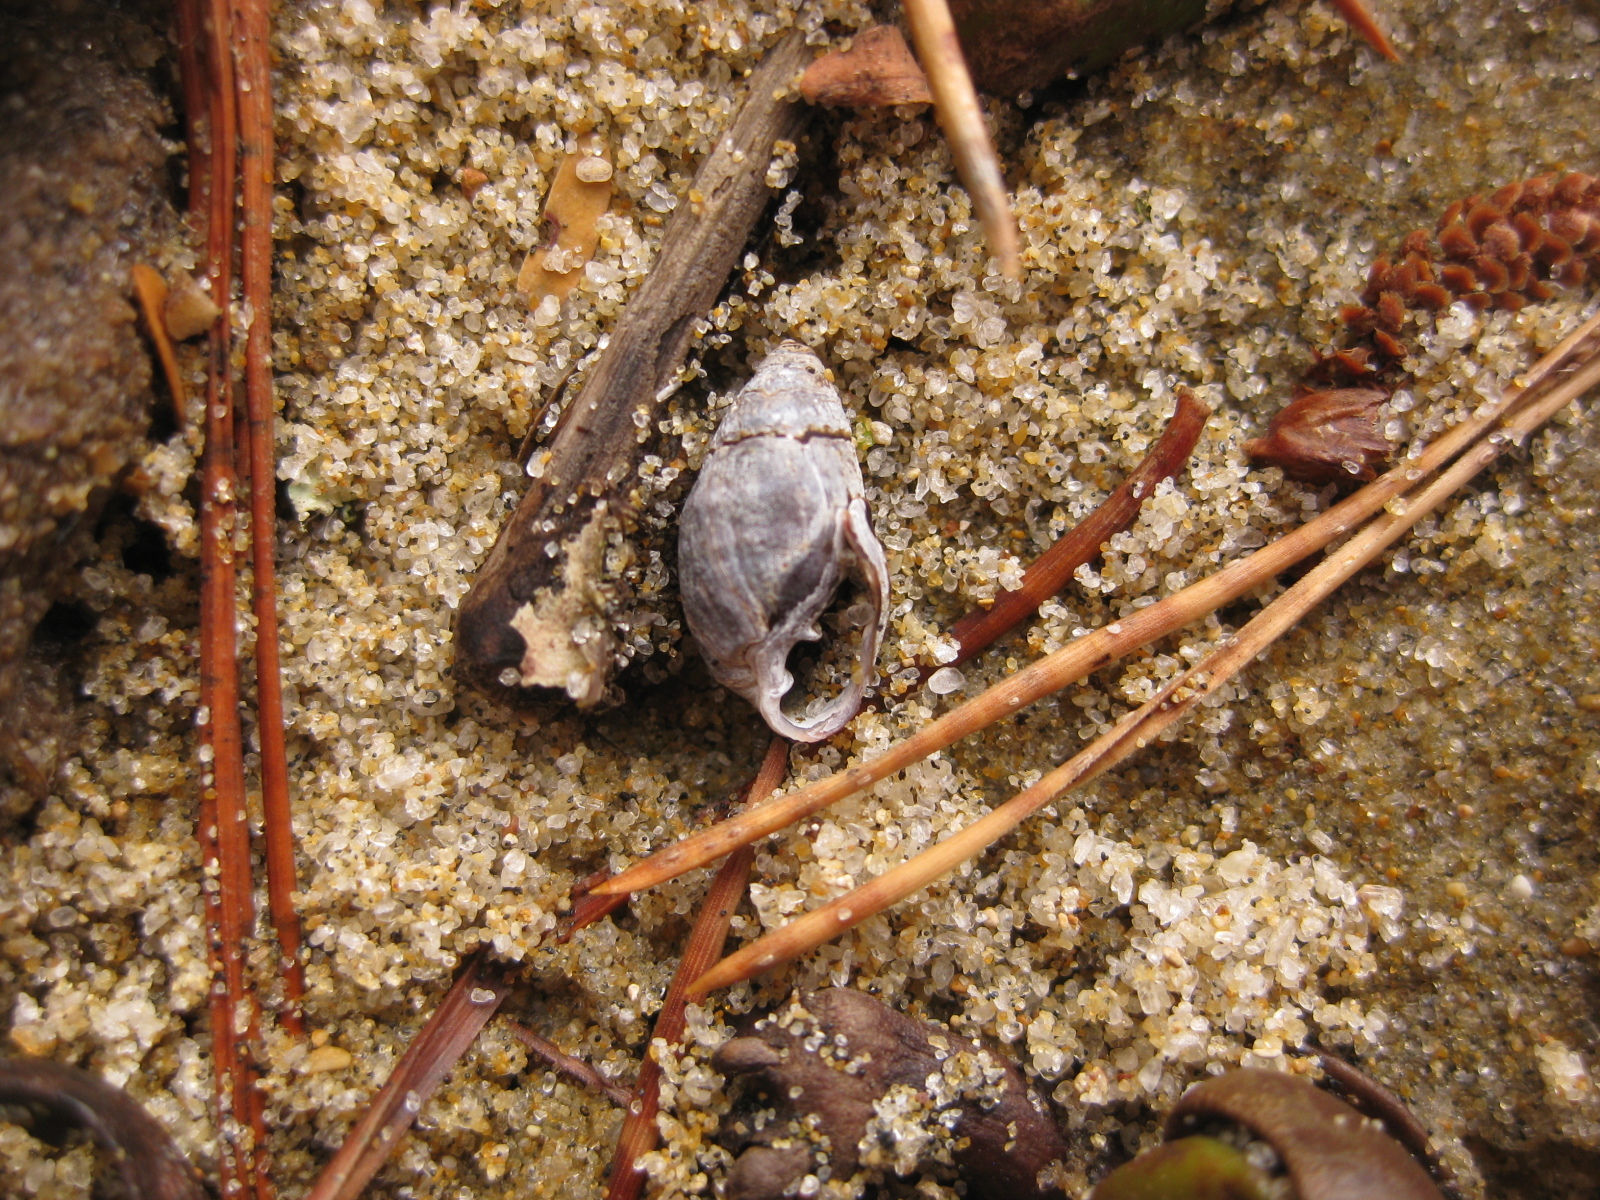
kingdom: Animalia
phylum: Mollusca
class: Gastropoda
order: Ellobiida
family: Ellobiidae
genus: Pleuroloba
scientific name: Pleuroloba costellaris
